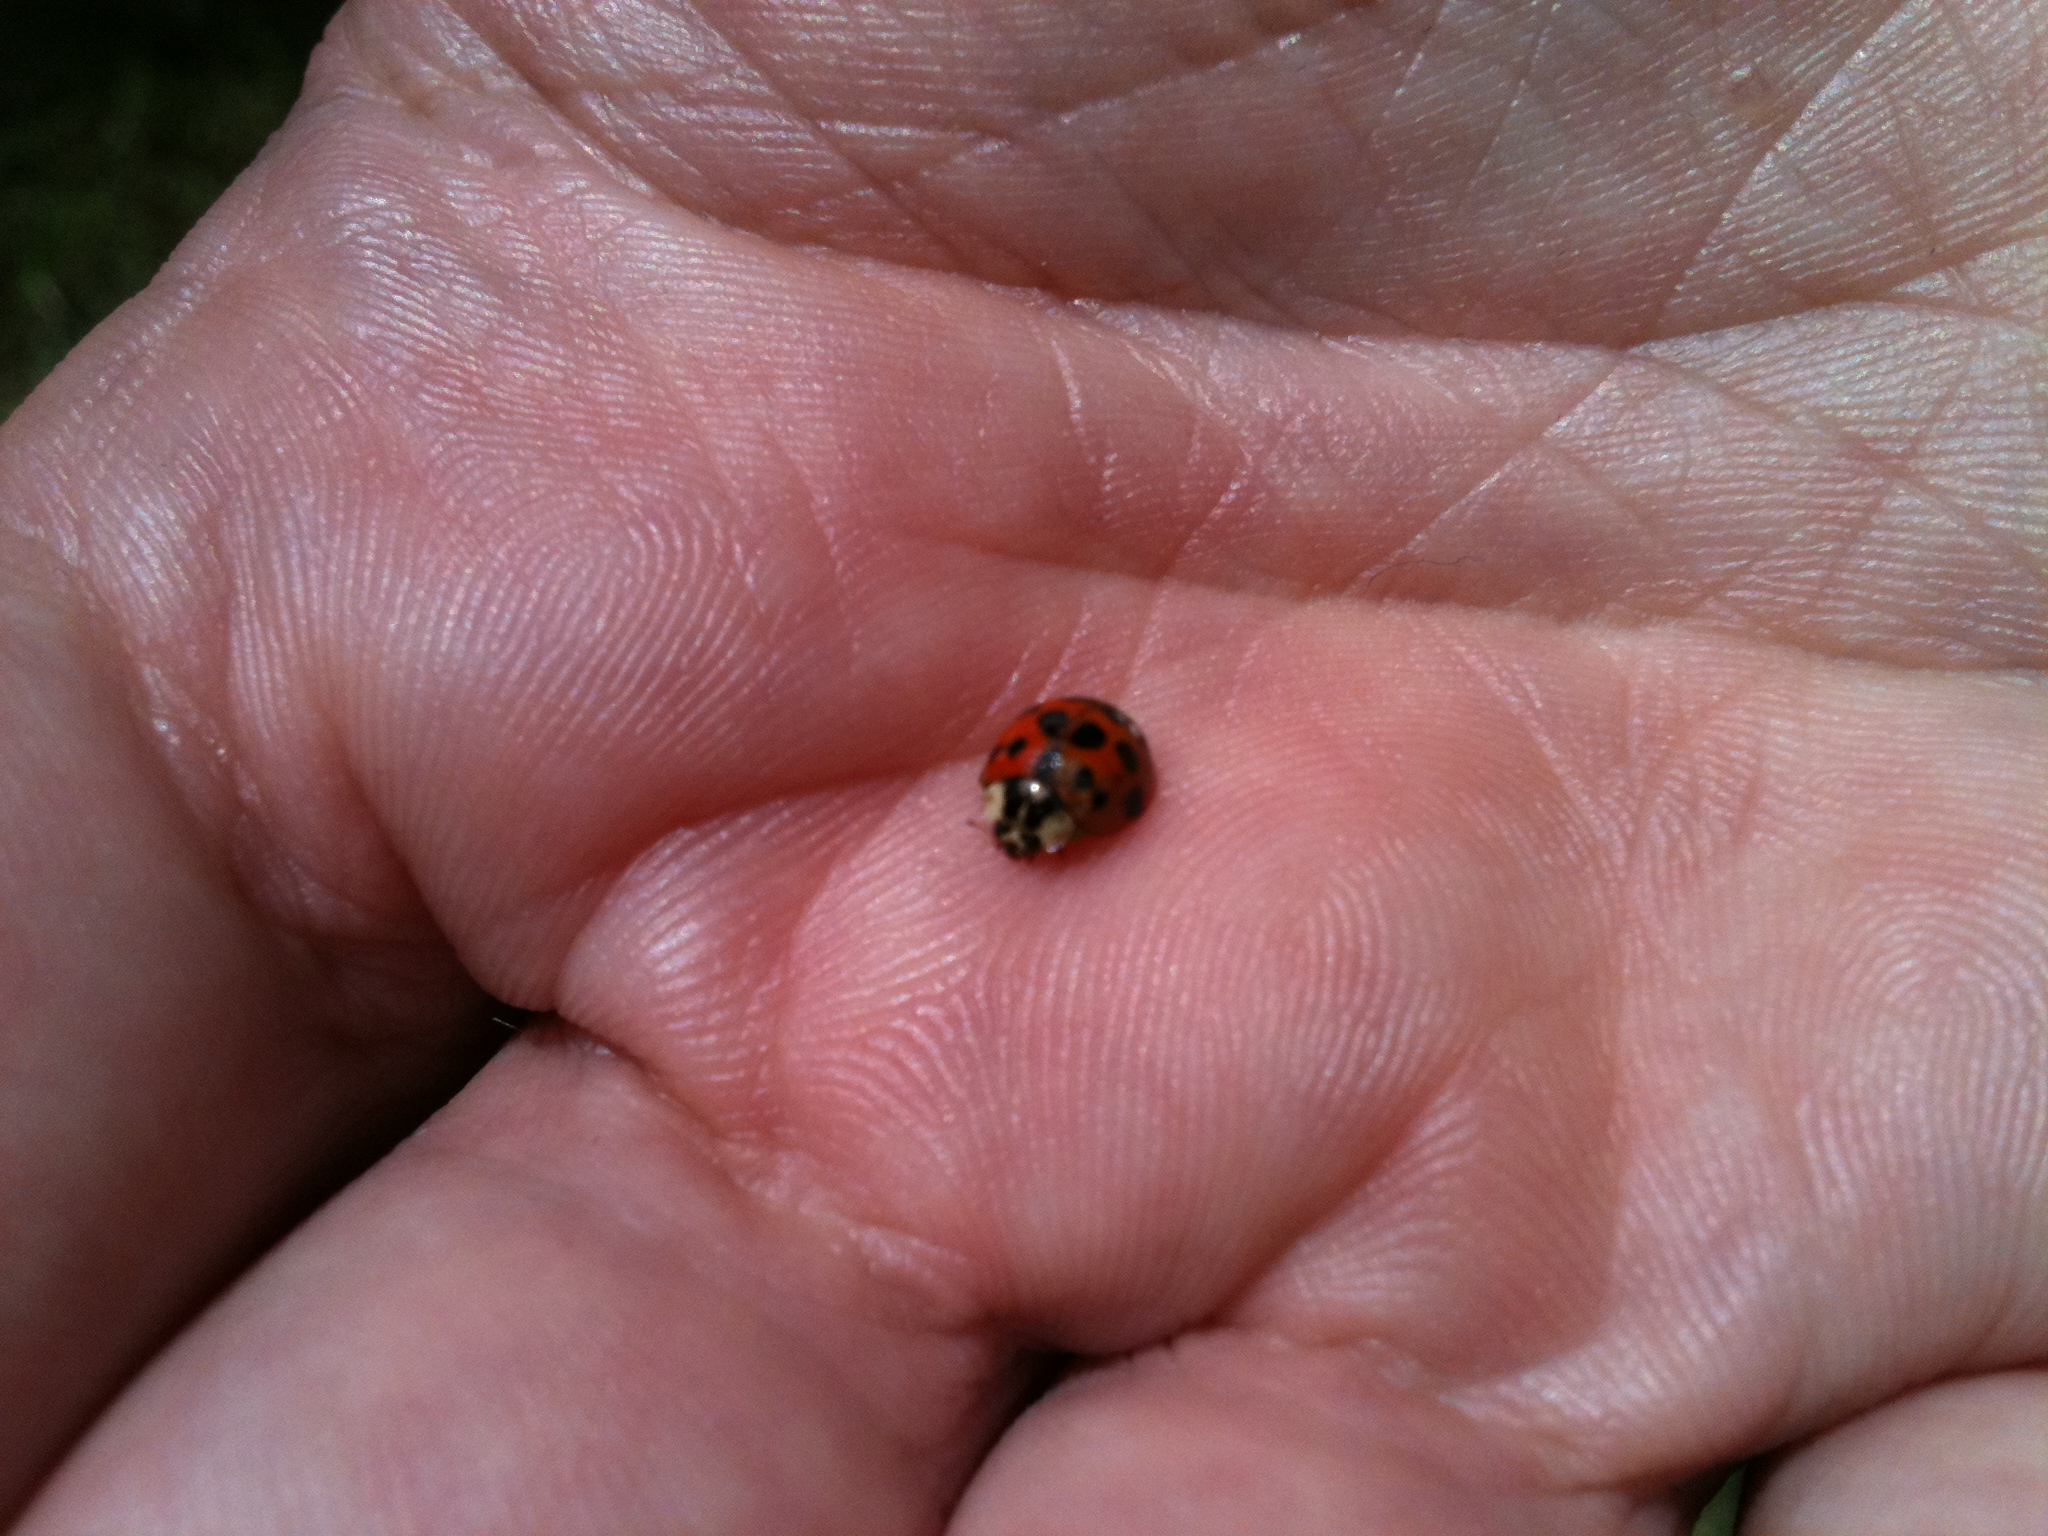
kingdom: Animalia
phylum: Arthropoda
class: Insecta
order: Coleoptera
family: Coccinellidae
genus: Harmonia
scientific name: Harmonia axyridis
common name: Harlequin ladybird
